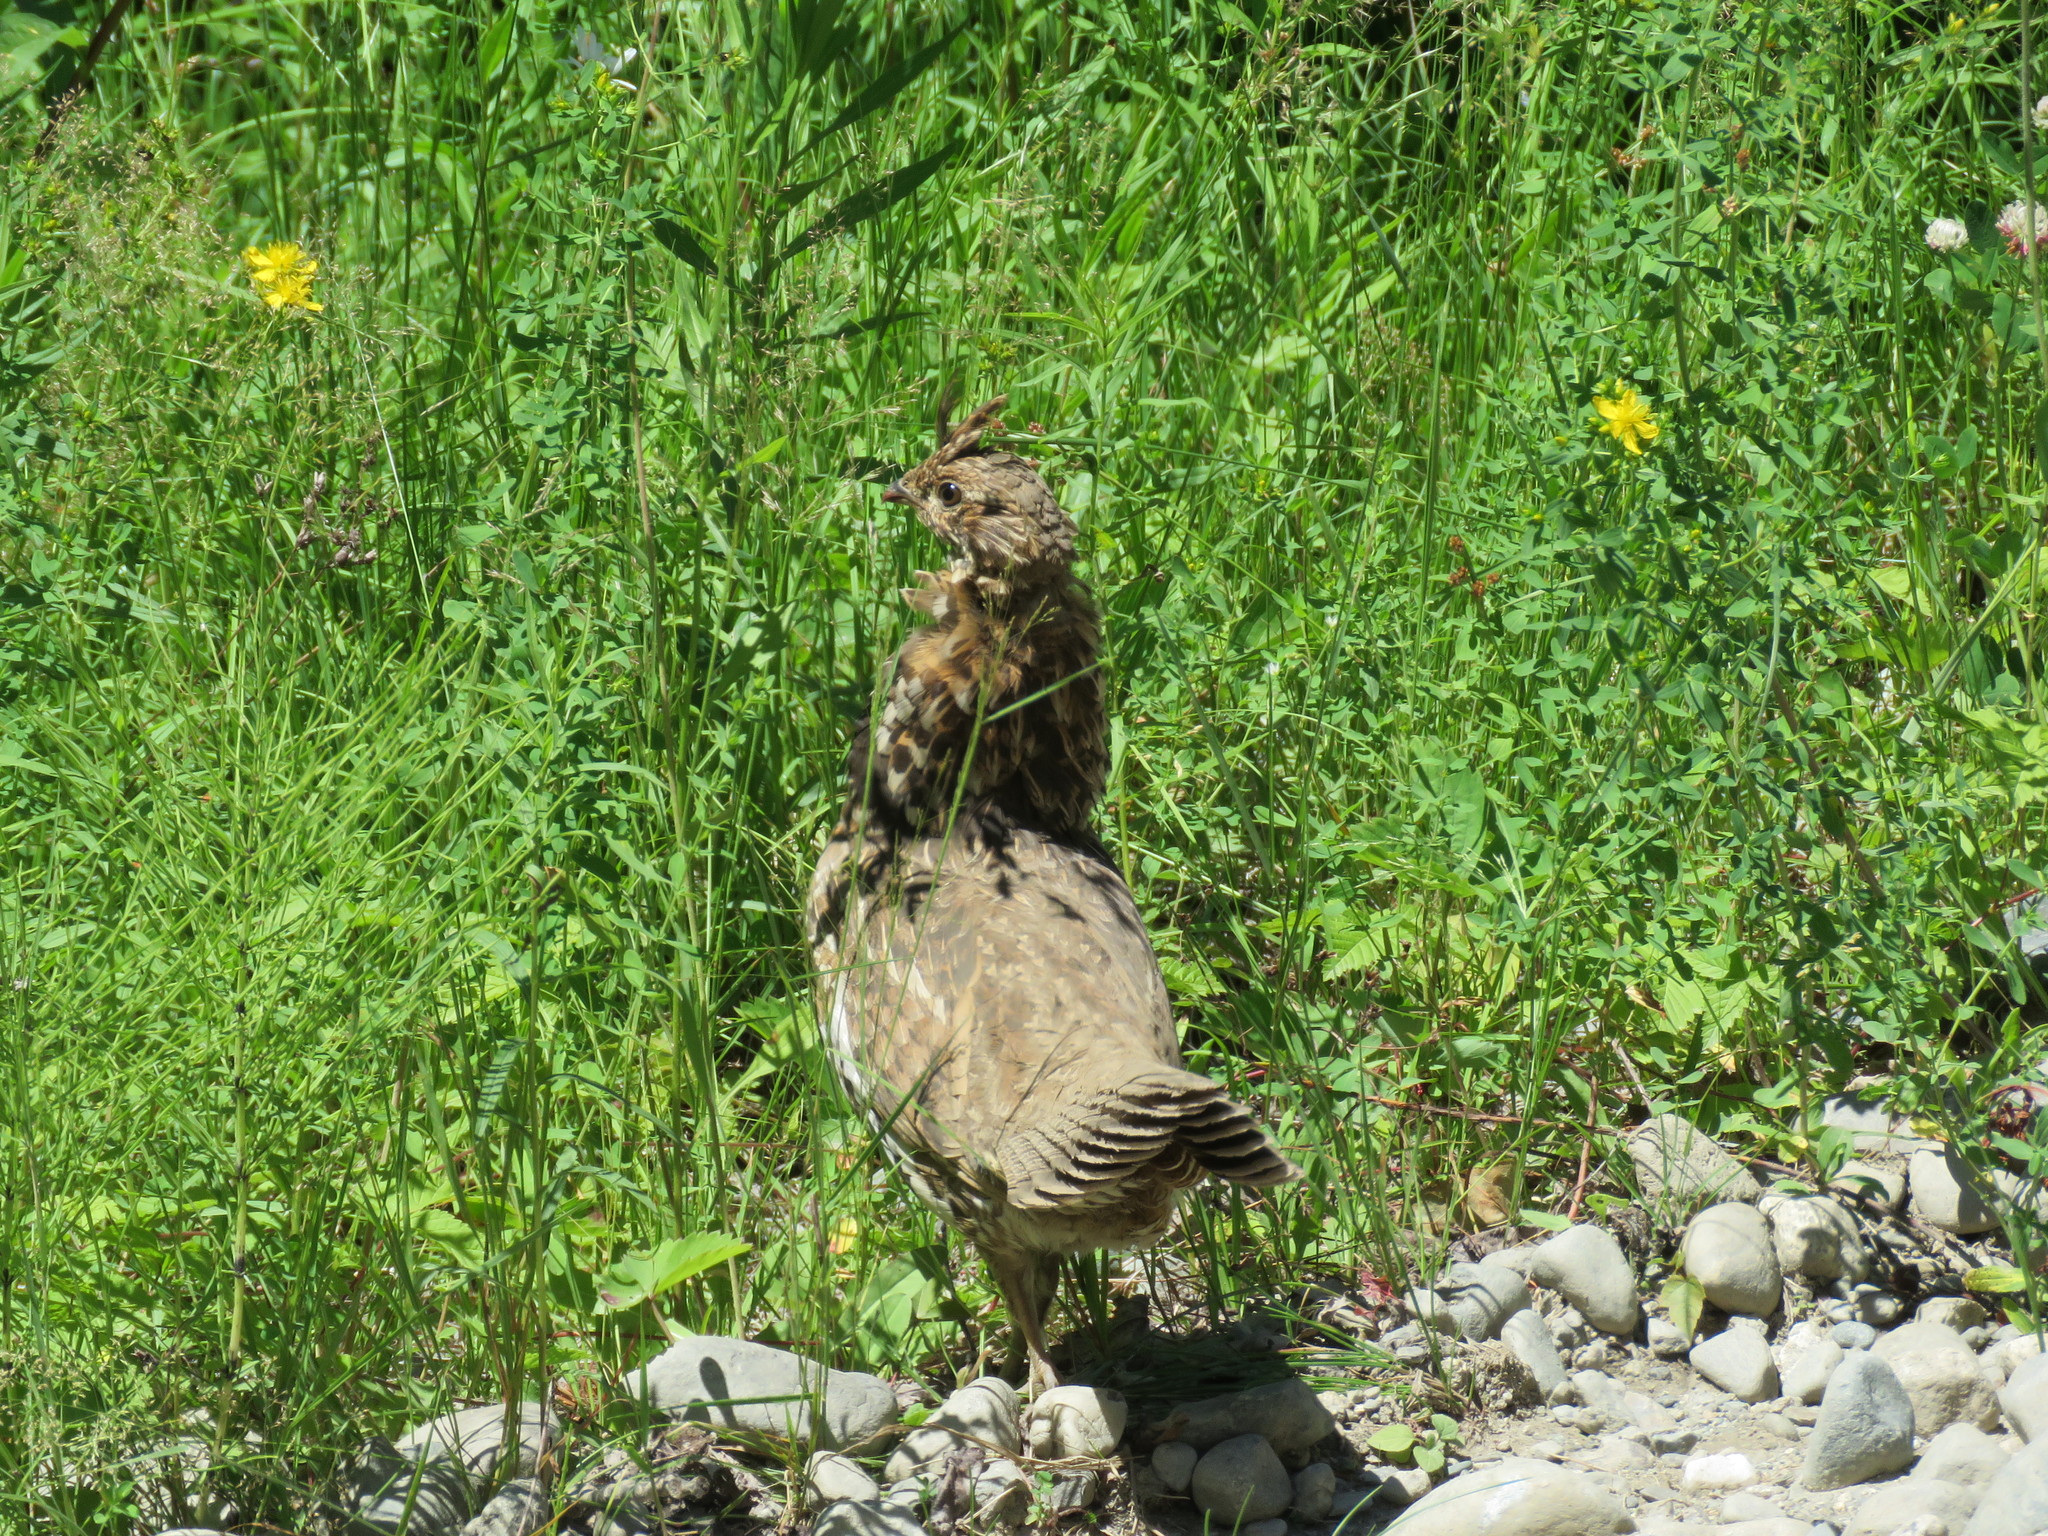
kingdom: Animalia
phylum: Chordata
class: Aves
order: Galliformes
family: Phasianidae
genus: Bonasa
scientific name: Bonasa umbellus
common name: Ruffed grouse
